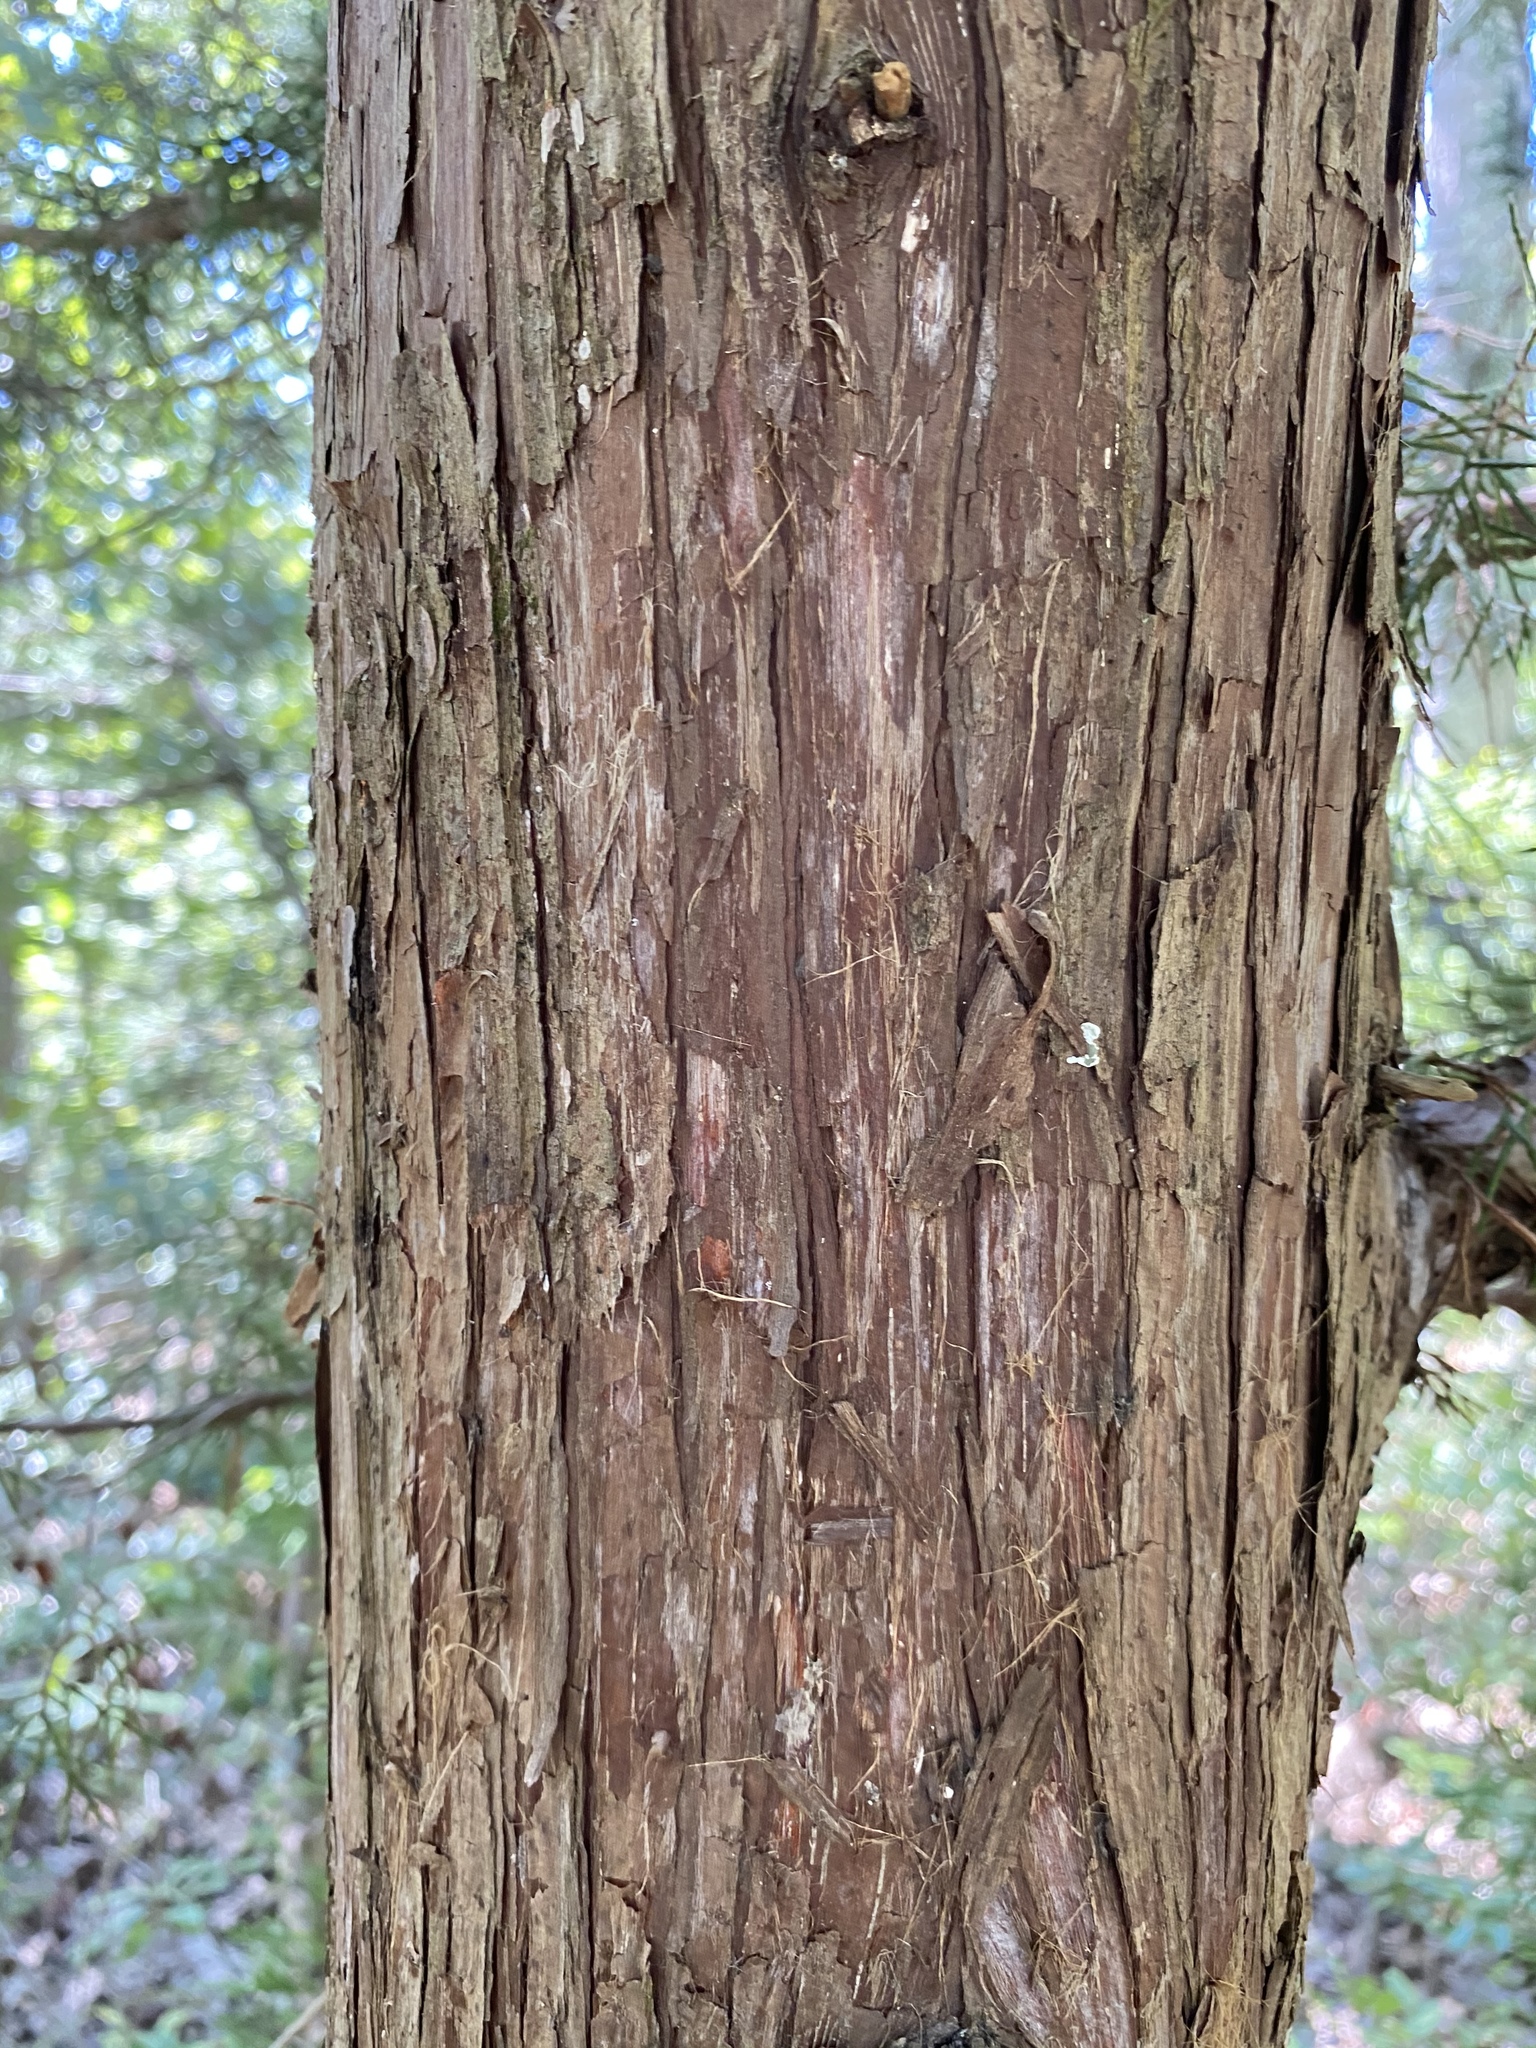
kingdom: Plantae
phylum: Tracheophyta
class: Pinopsida
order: Pinales
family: Cupressaceae
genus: Juniperus
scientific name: Juniperus virginiana
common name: Red juniper
